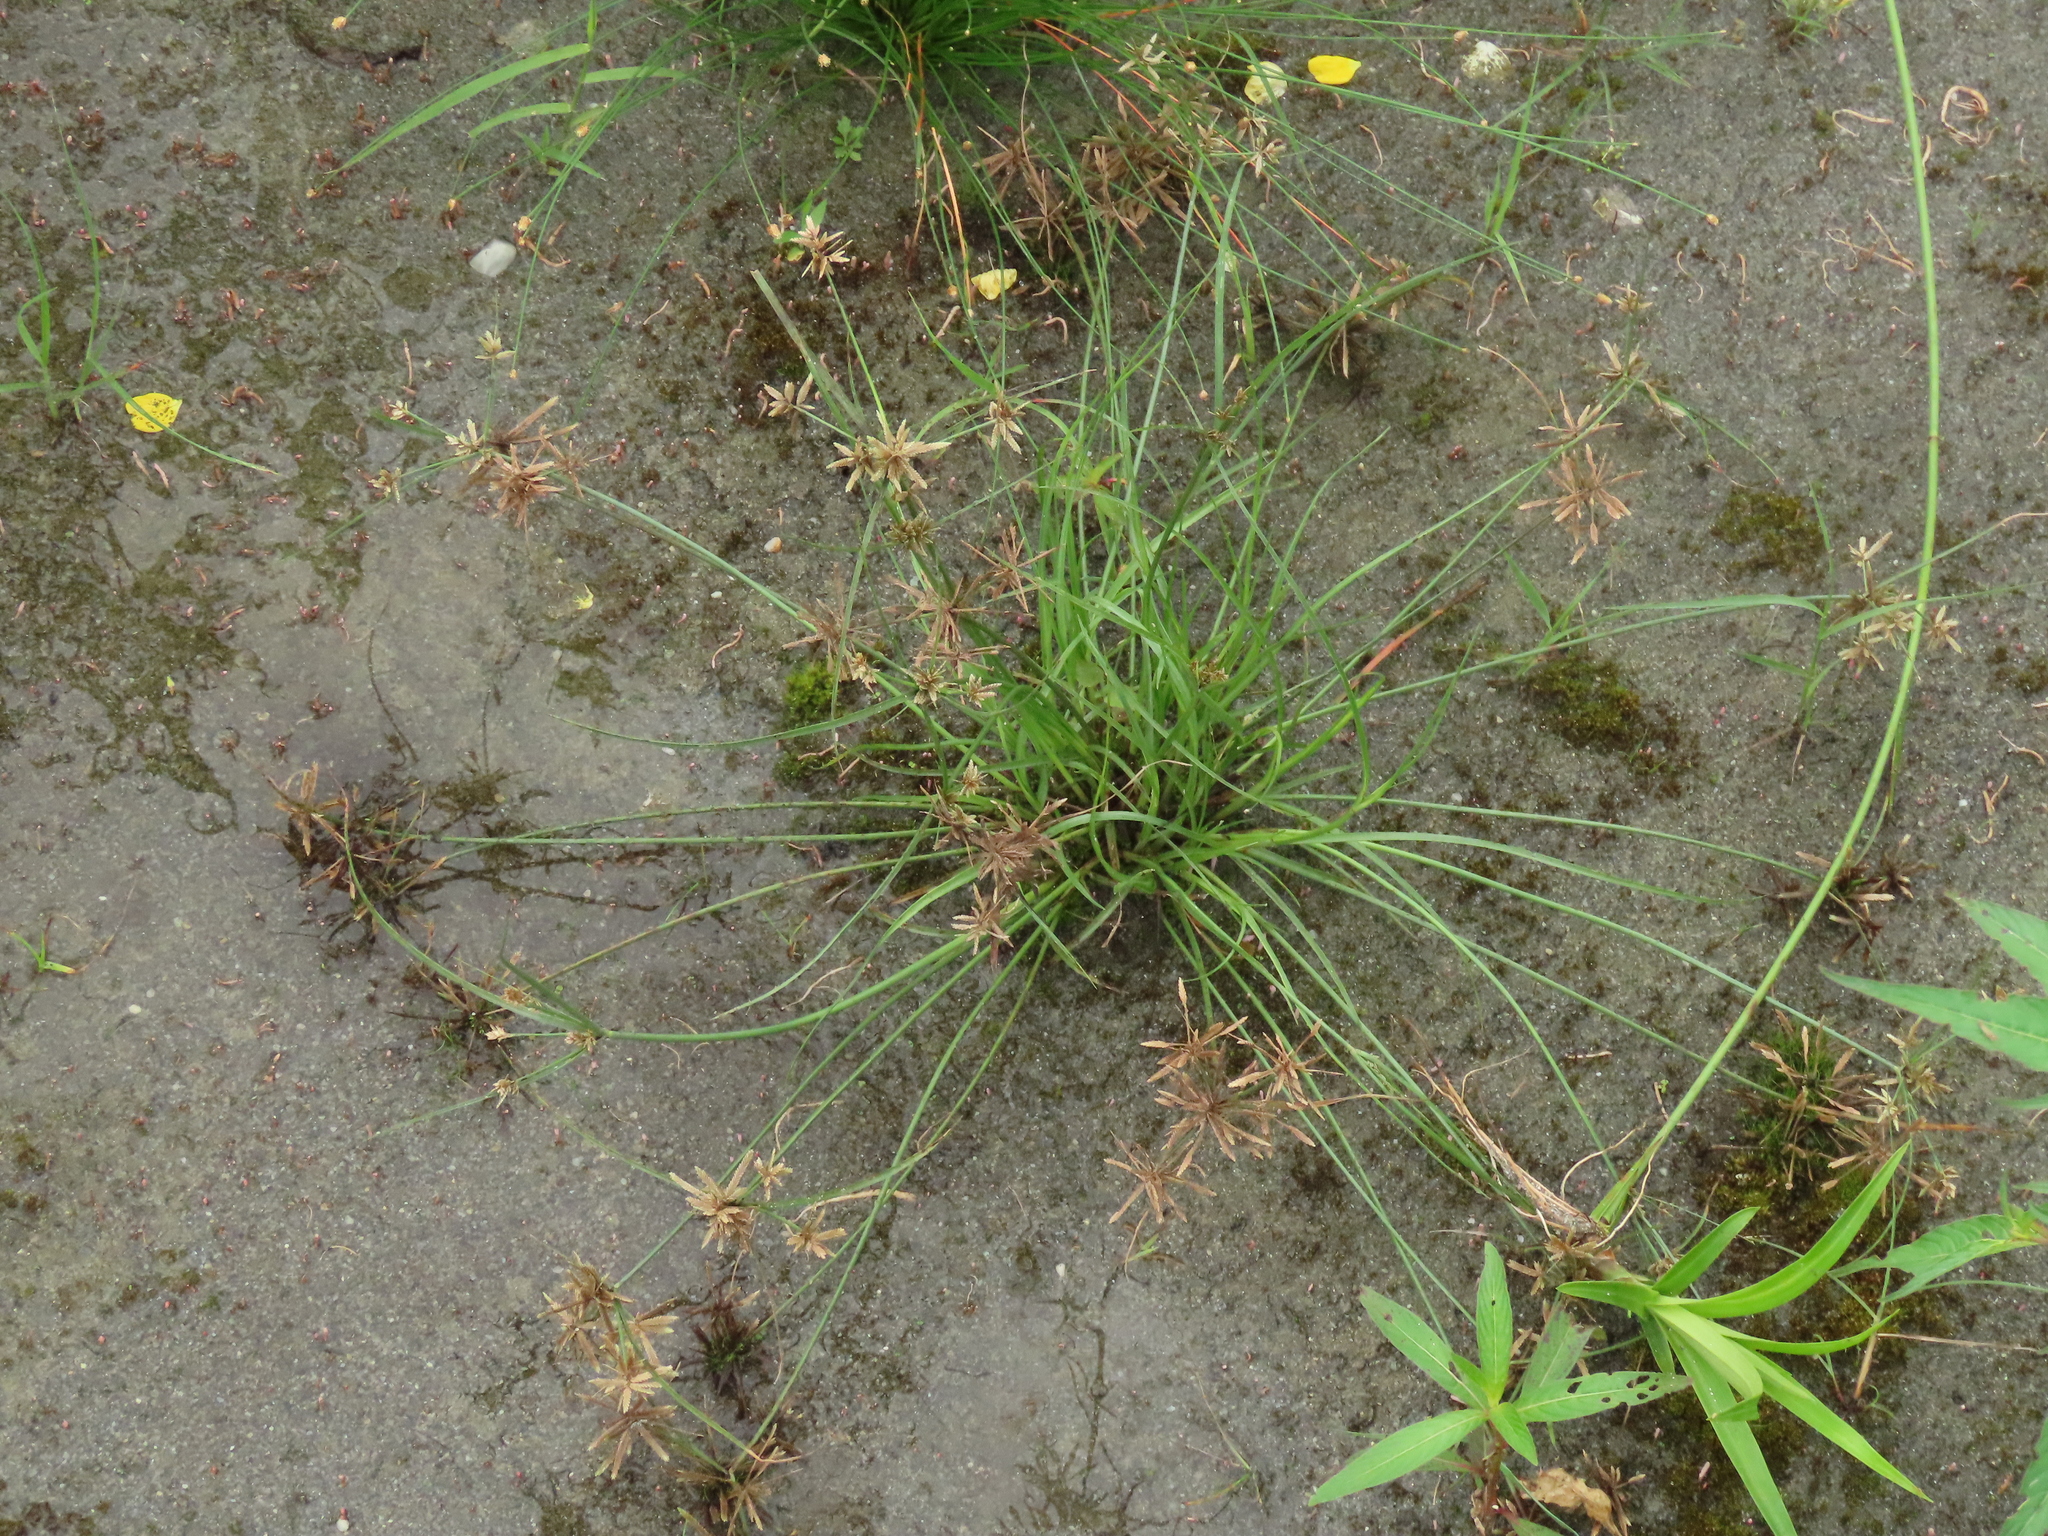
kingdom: Plantae
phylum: Tracheophyta
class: Liliopsida
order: Poales
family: Cyperaceae
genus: Cyperus
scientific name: Cyperus flavidus
